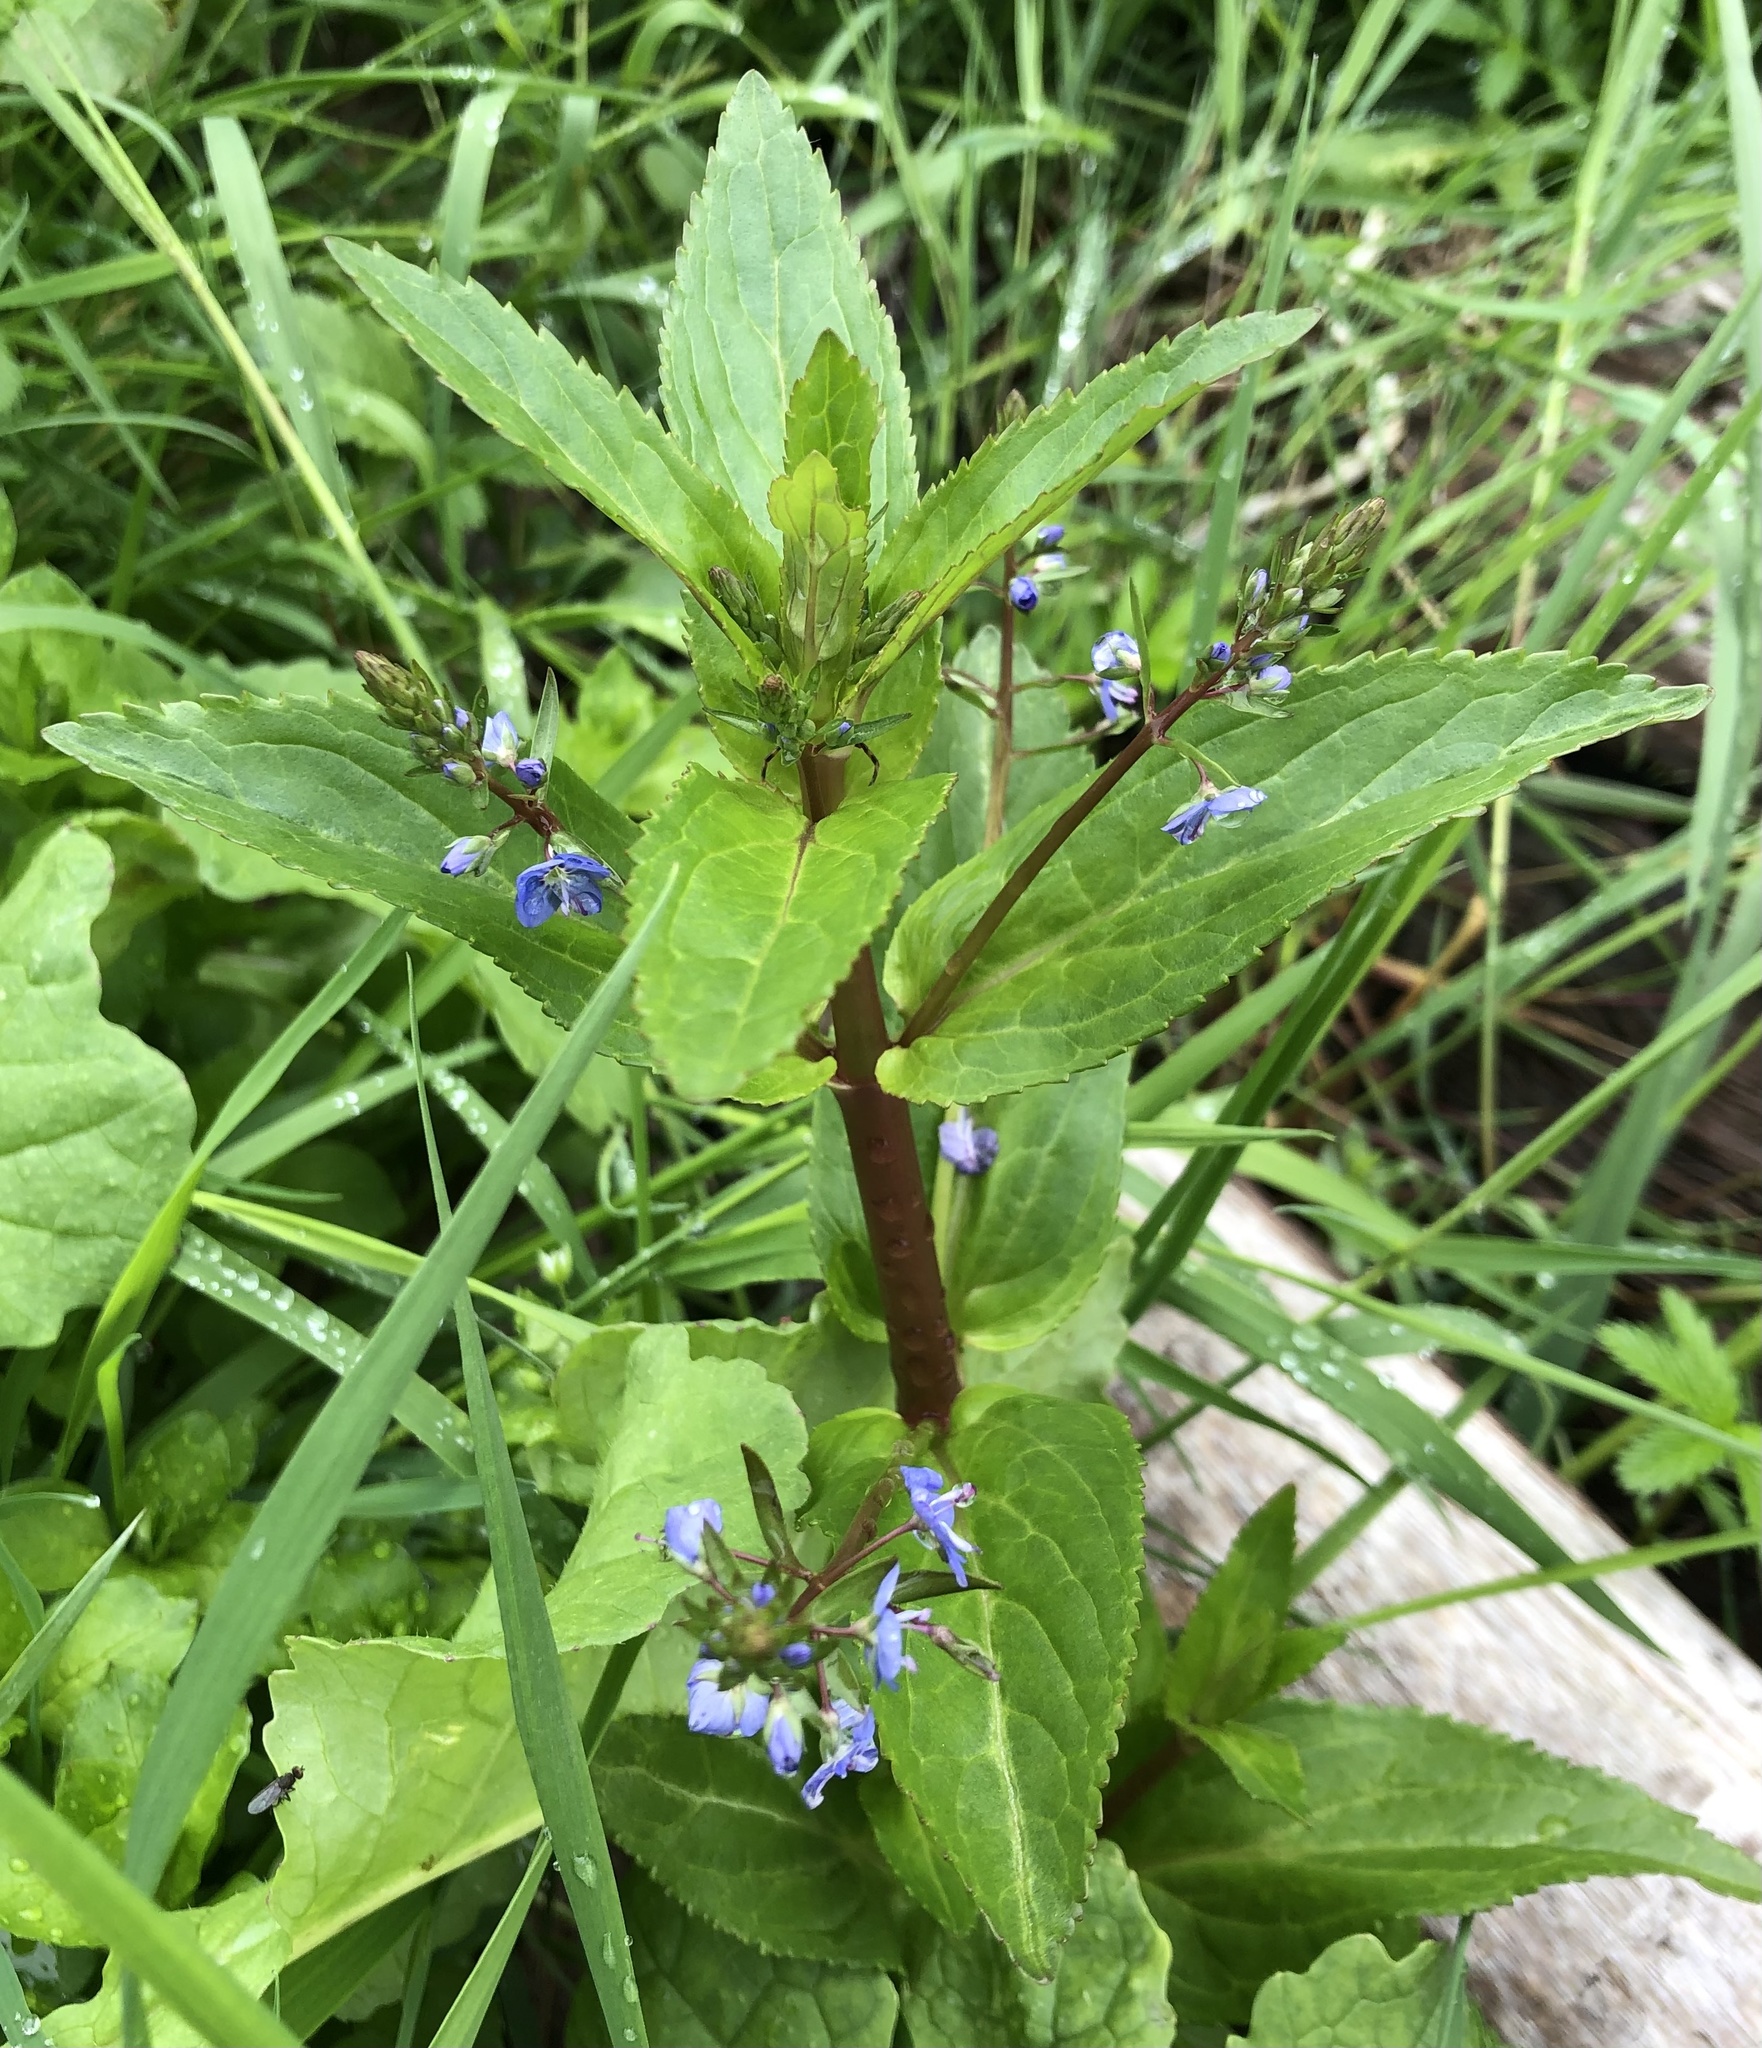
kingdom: Plantae
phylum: Tracheophyta
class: Magnoliopsida
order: Lamiales
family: Plantaginaceae
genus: Veronica
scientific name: Veronica americana
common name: American brooklime
